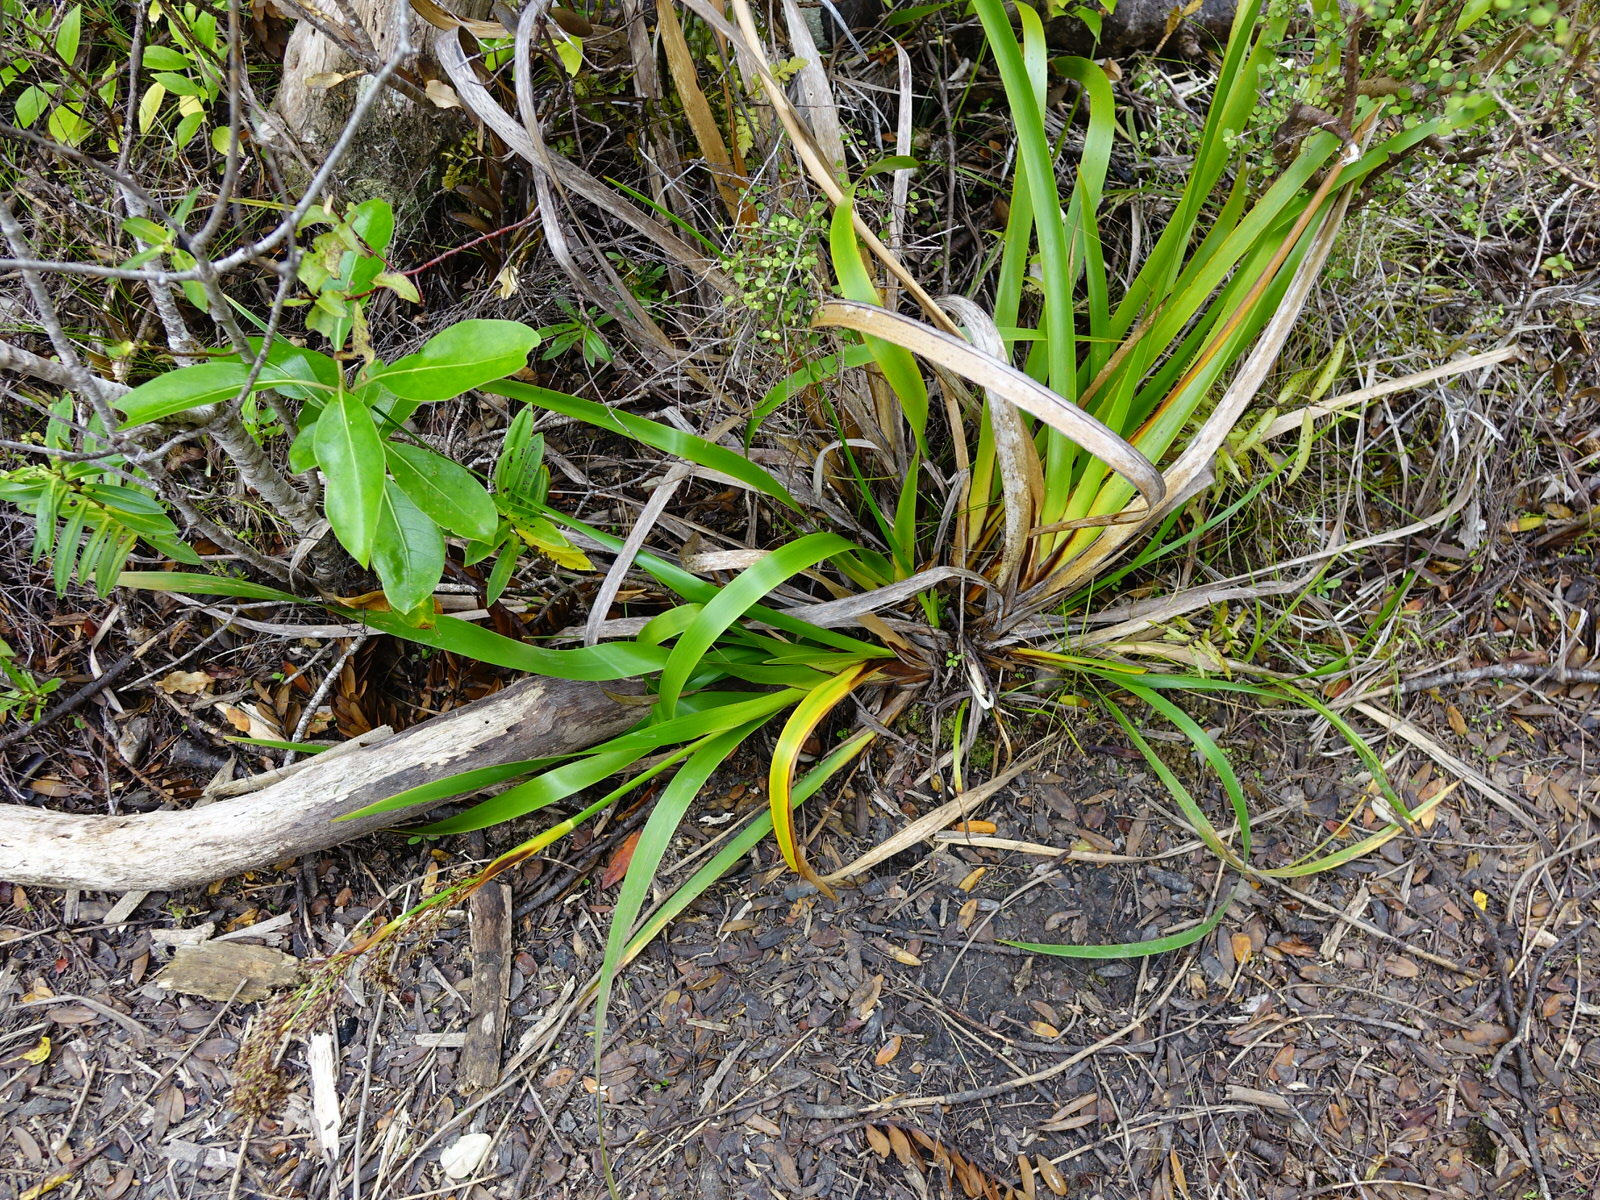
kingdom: Plantae
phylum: Tracheophyta
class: Liliopsida
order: Poales
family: Cyperaceae
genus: Machaerina
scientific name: Machaerina sinclairii
